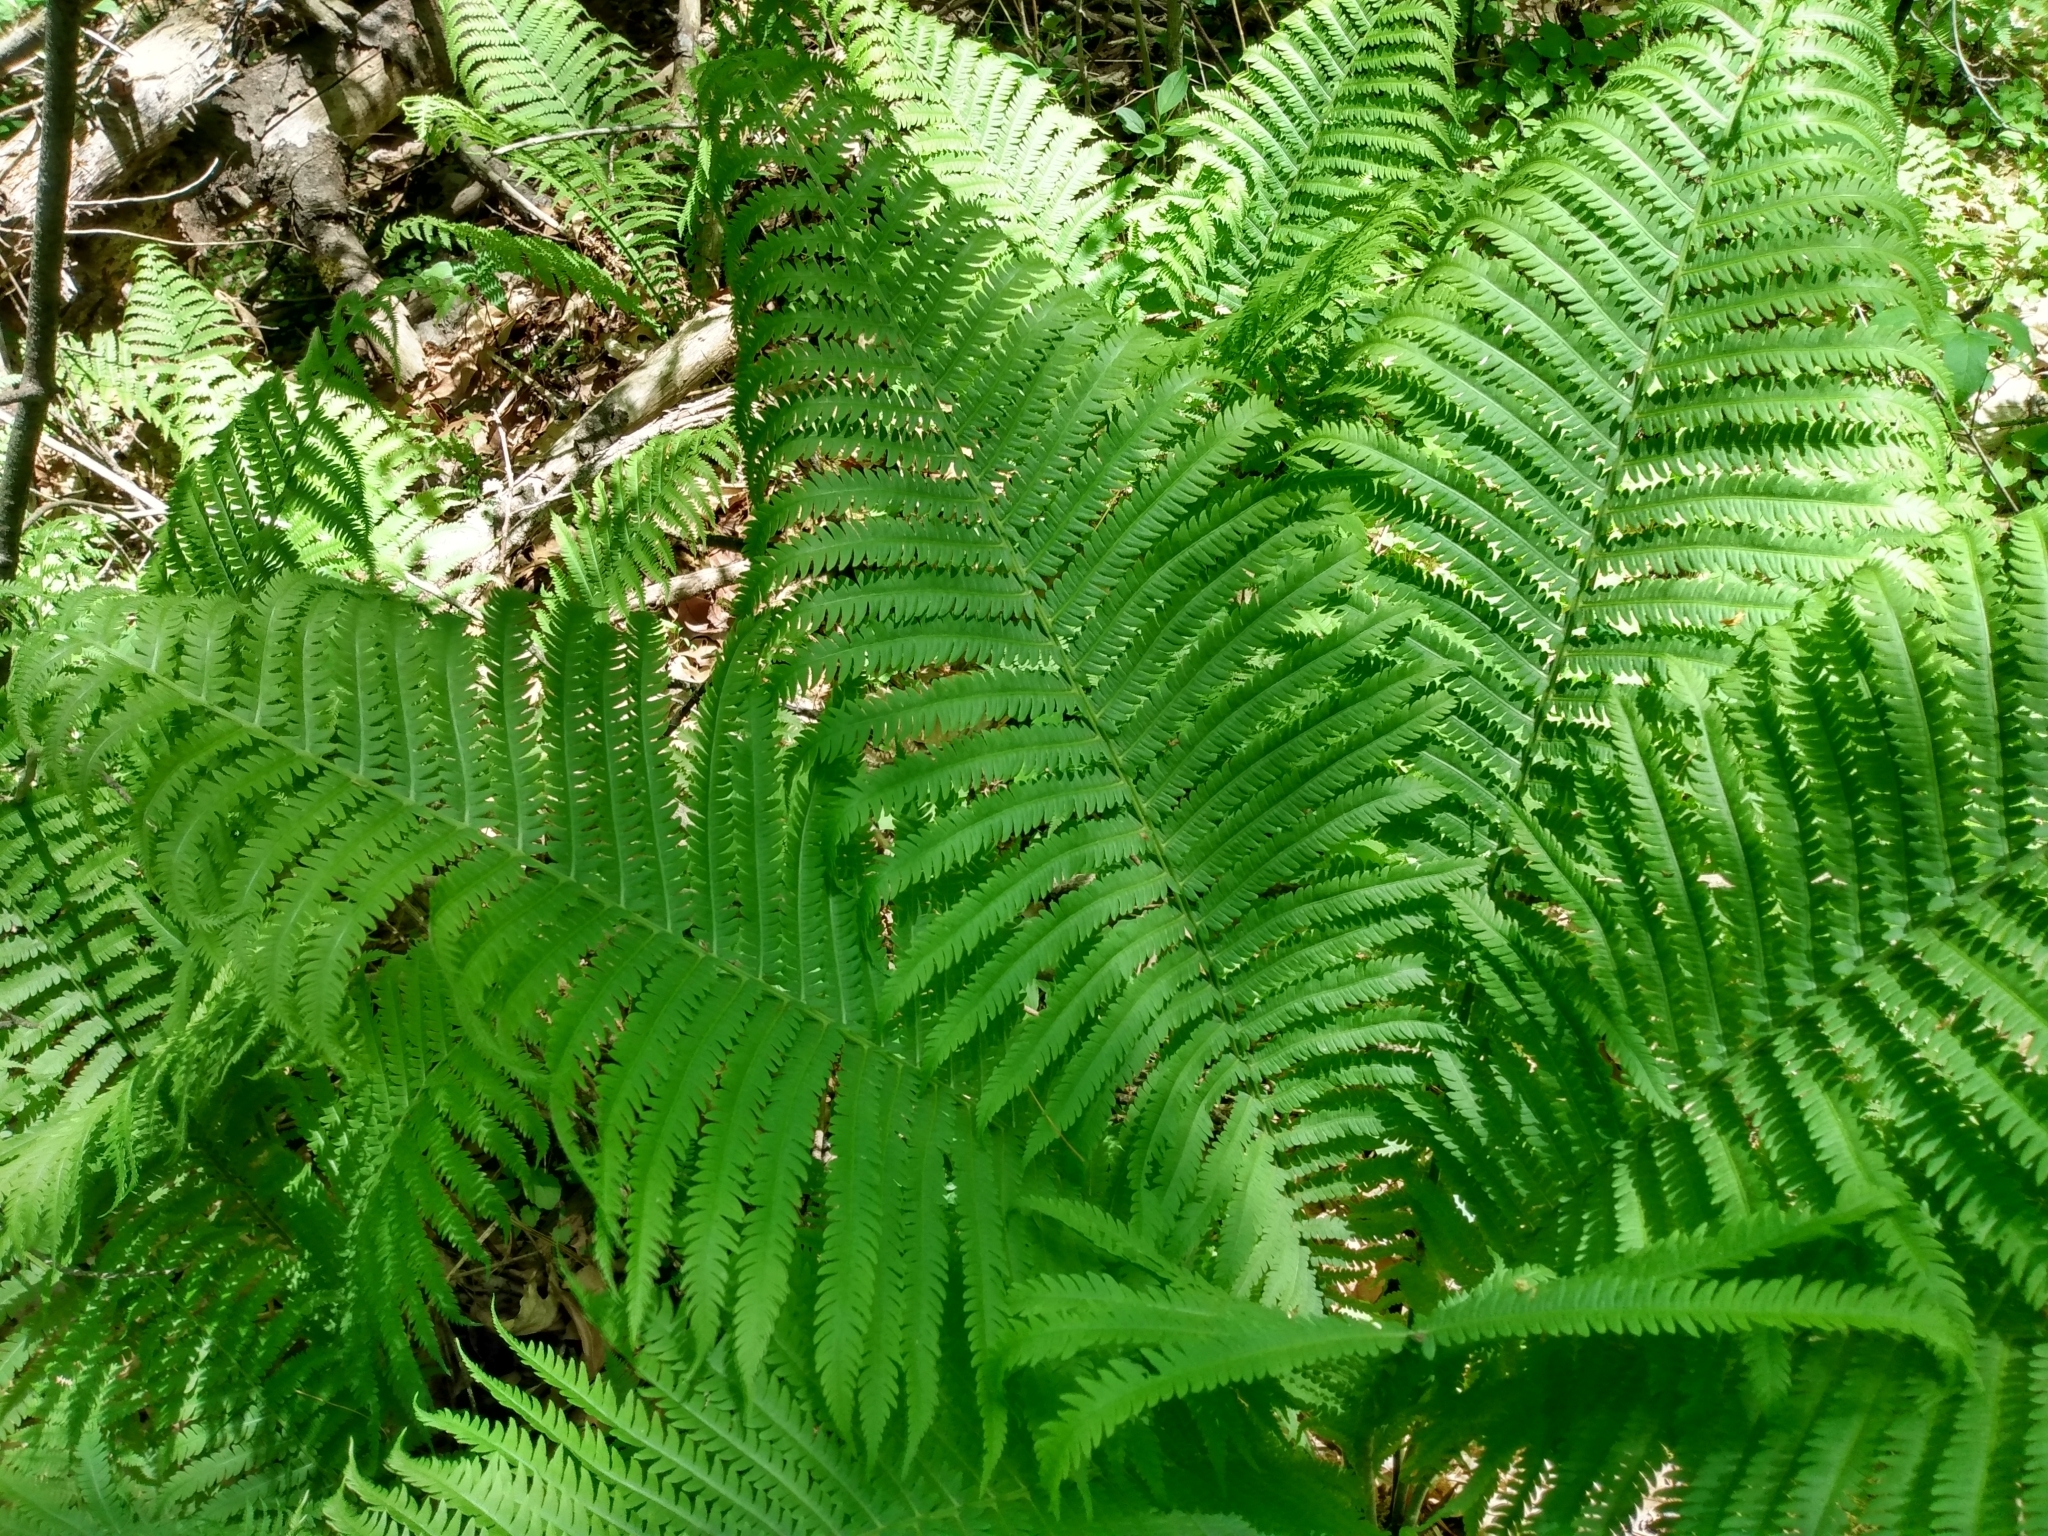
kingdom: Plantae
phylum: Tracheophyta
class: Polypodiopsida
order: Polypodiales
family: Onocleaceae
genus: Matteuccia
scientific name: Matteuccia struthiopteris
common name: Ostrich fern
